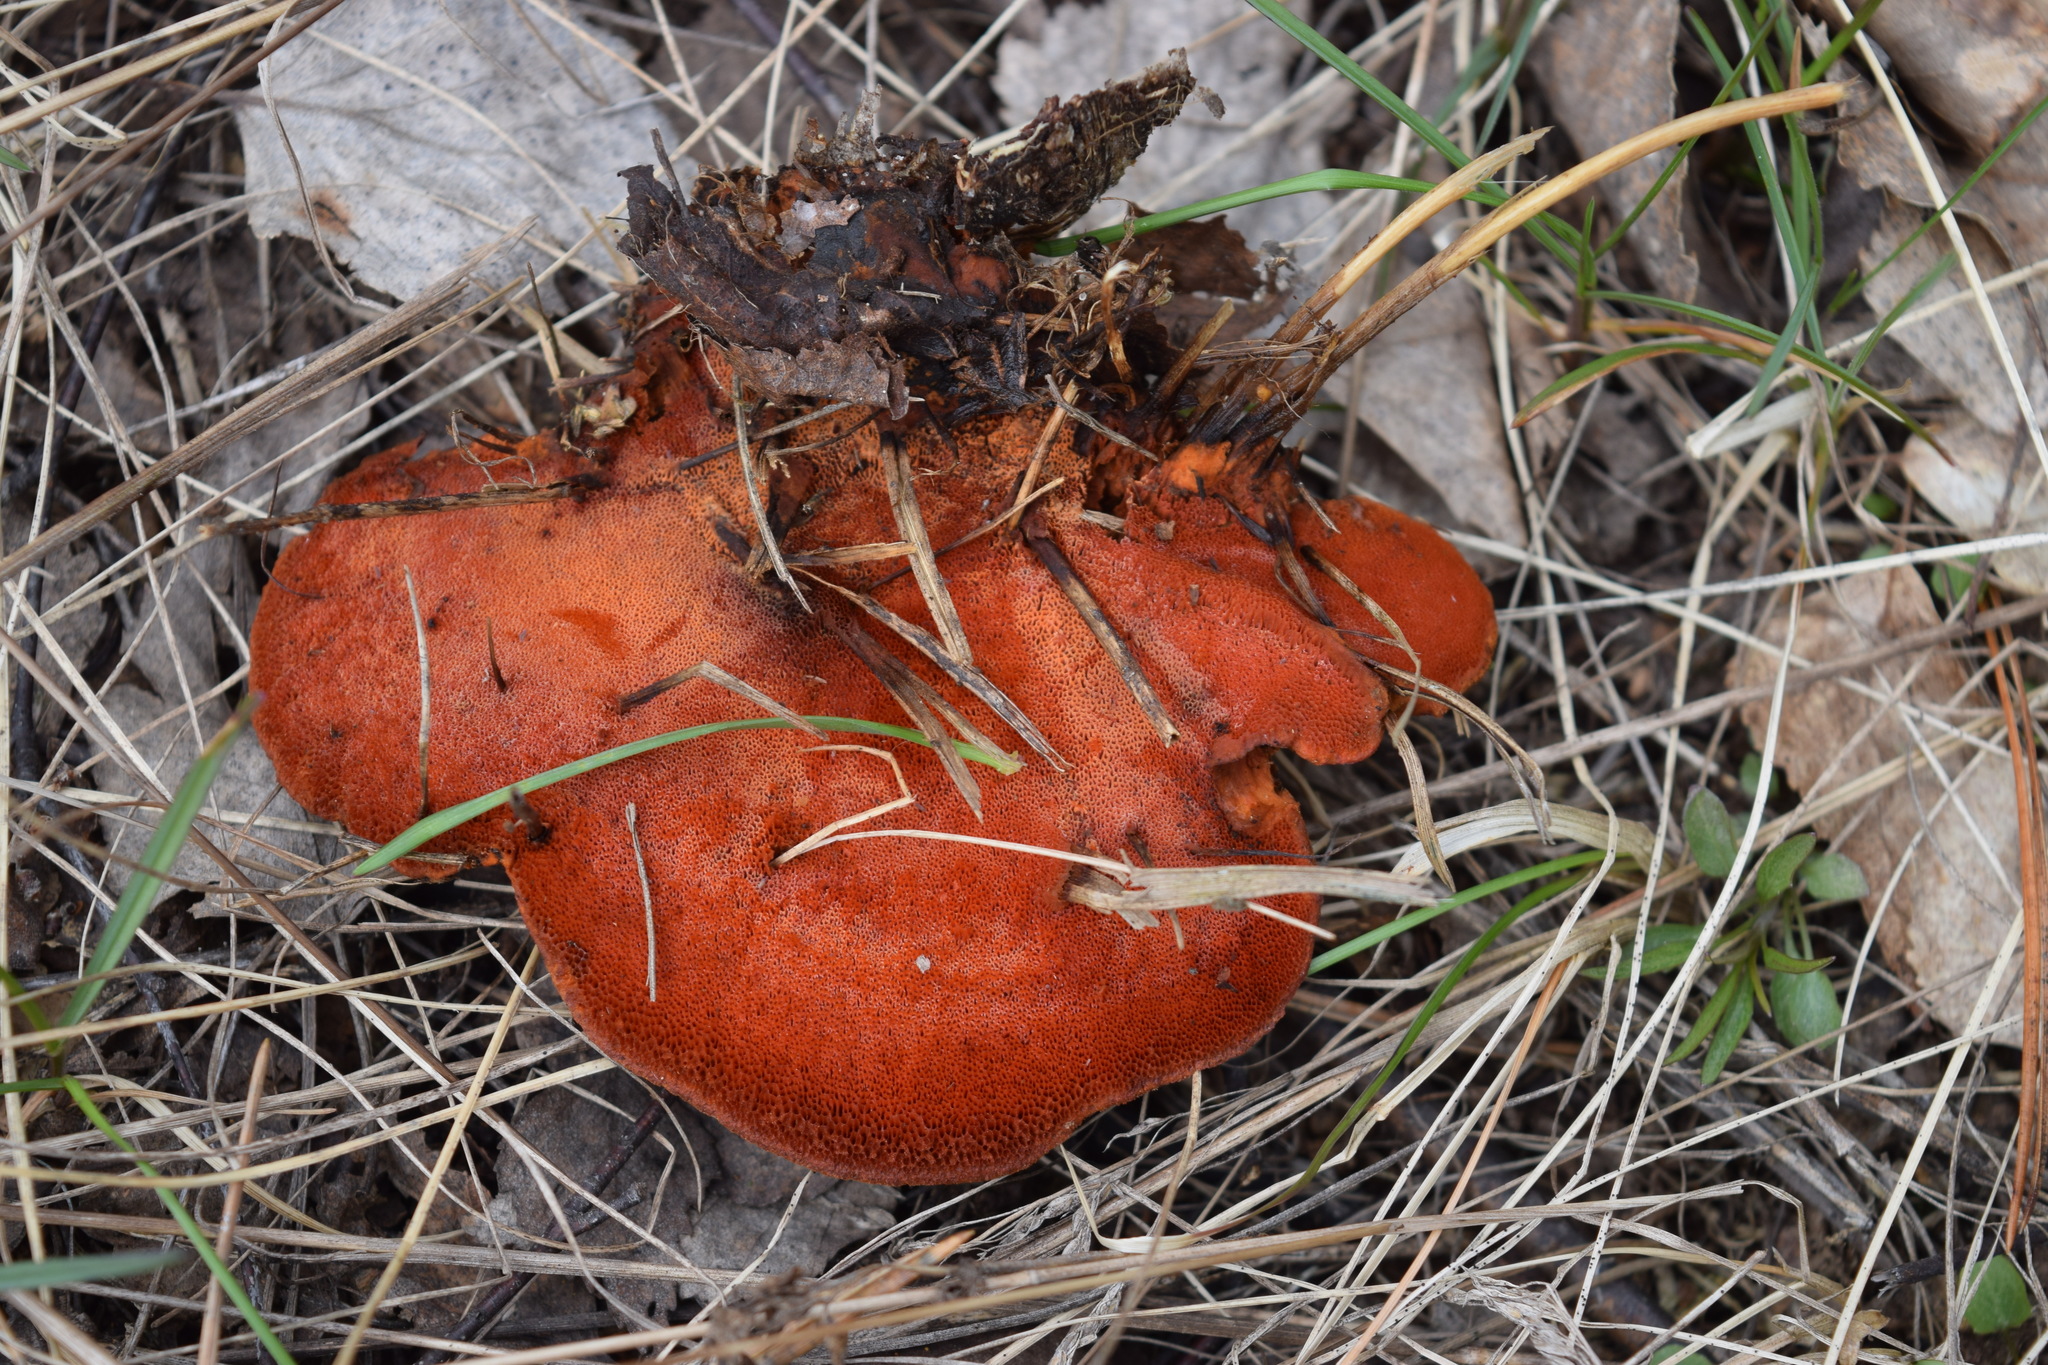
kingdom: Fungi
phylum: Basidiomycota
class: Agaricomycetes
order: Polyporales
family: Polyporaceae
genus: Trametes
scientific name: Trametes cinnabarina
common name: Northern cinnabar polypore
